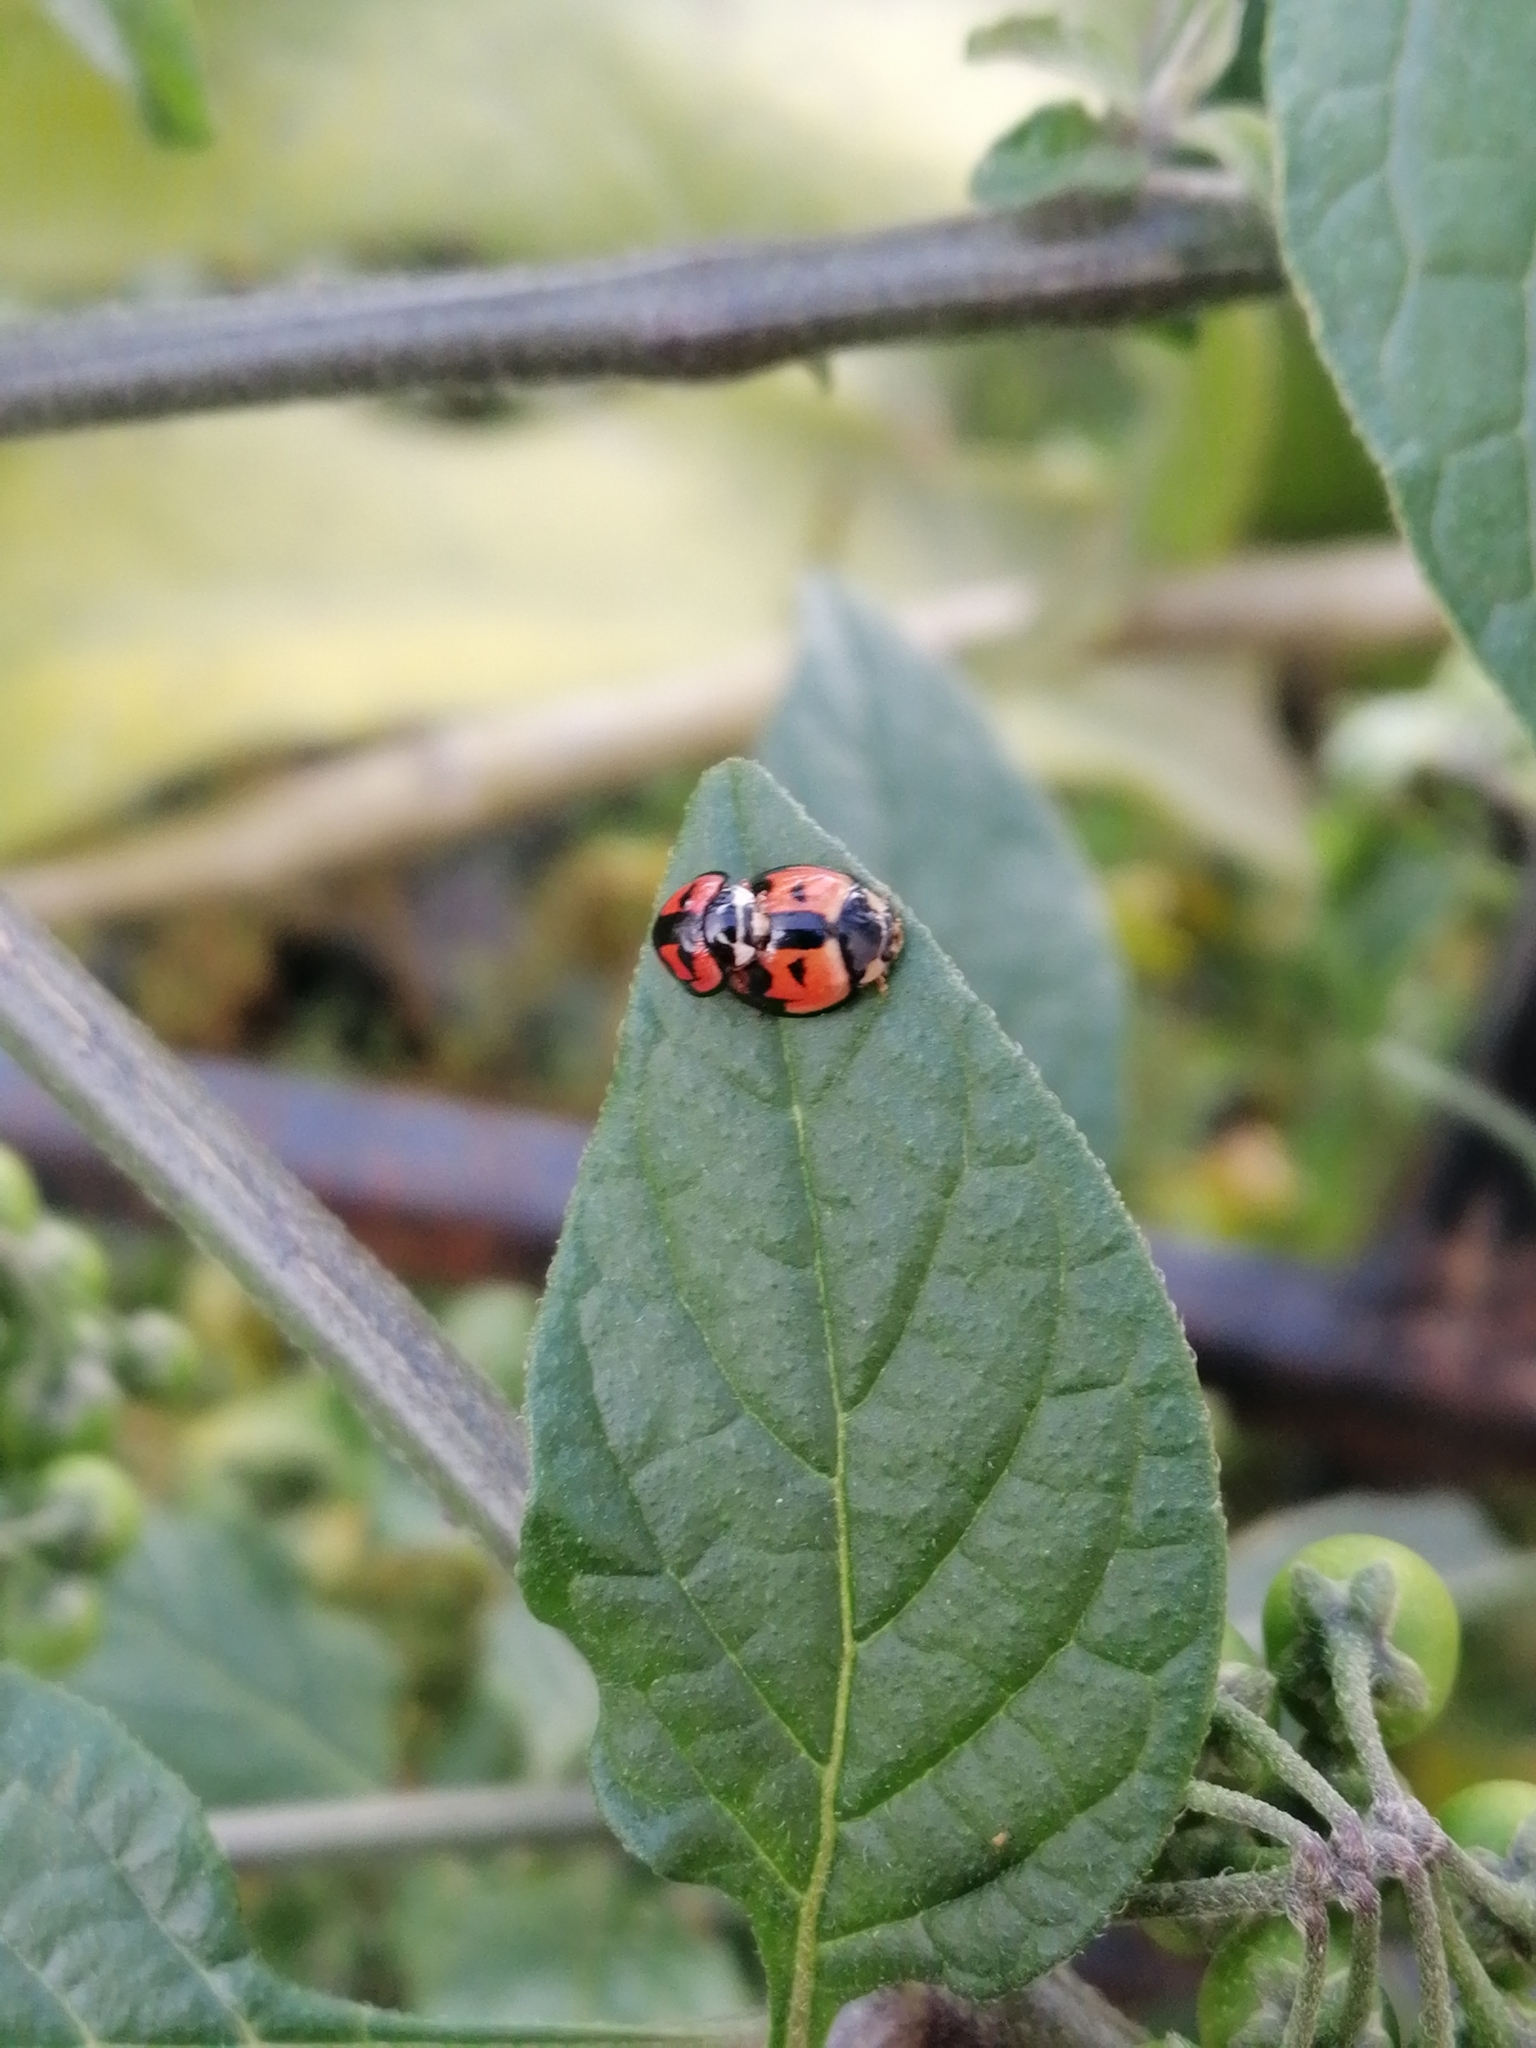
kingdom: Animalia
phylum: Arthropoda
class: Insecta
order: Coleoptera
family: Coccinellidae
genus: Cheilomenes
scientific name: Cheilomenes sexmaculata
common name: Ladybird beetle
